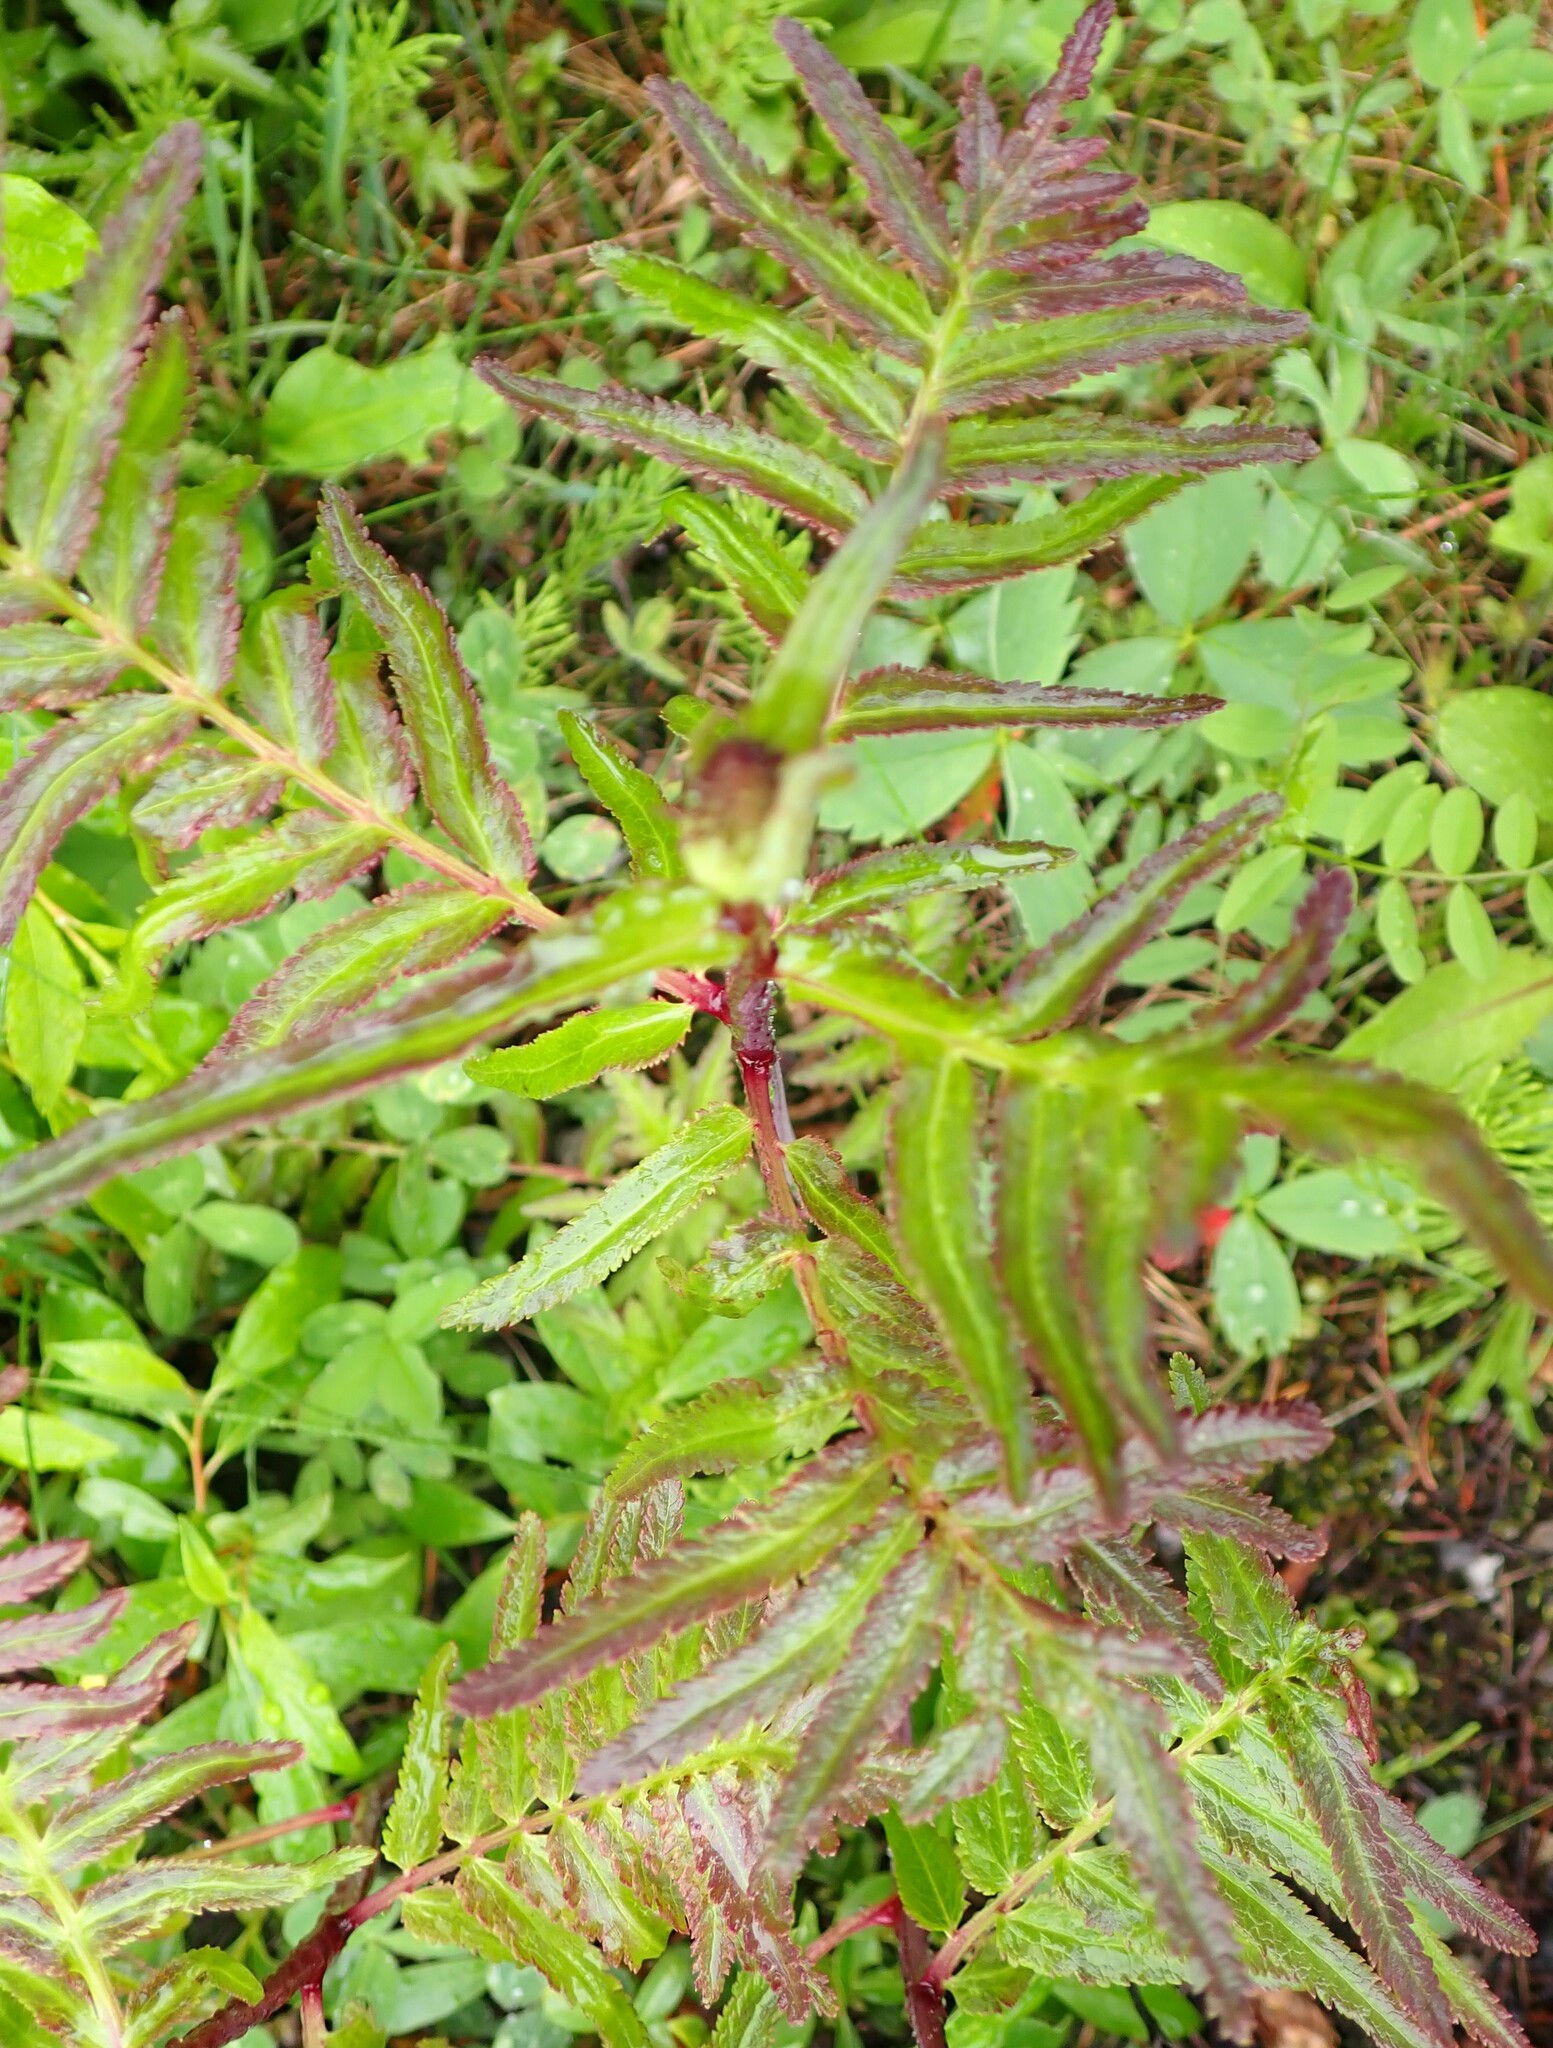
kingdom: Plantae
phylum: Tracheophyta
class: Magnoliopsida
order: Lamiales
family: Orobanchaceae
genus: Pedicularis
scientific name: Pedicularis bracteosa
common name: Bracted lousewort
